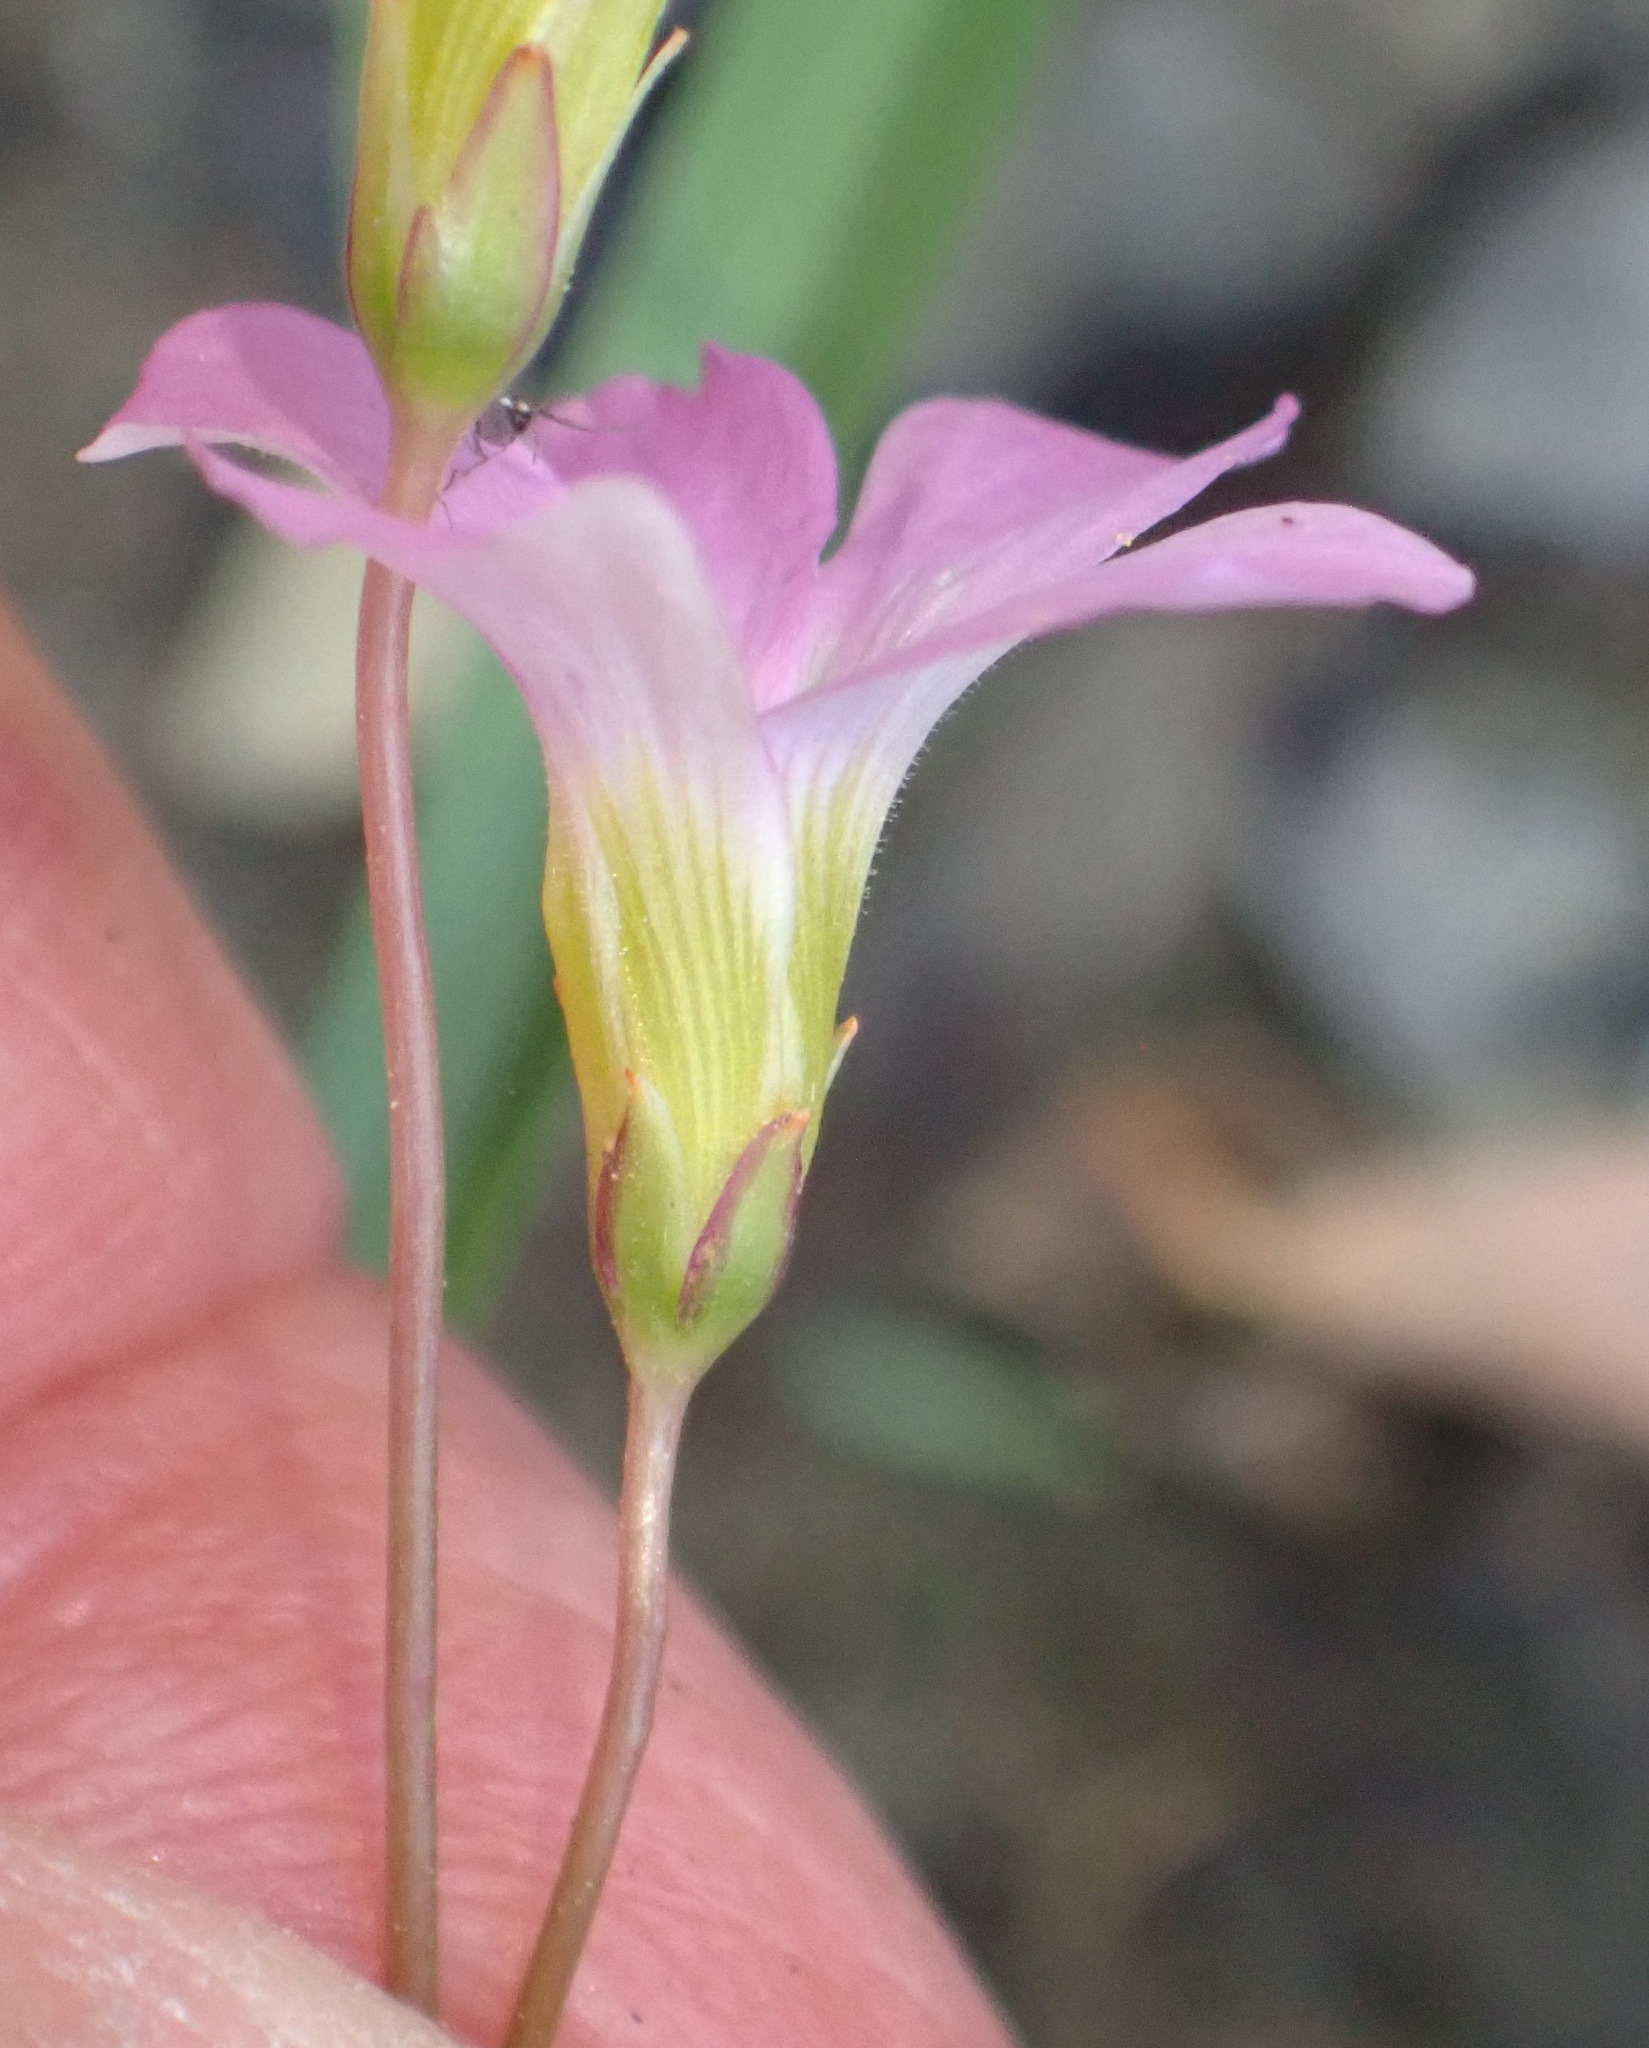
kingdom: Plantae
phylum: Tracheophyta
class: Magnoliopsida
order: Oxalidales
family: Oxalidaceae
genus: Oxalis
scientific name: Oxalis stellata
